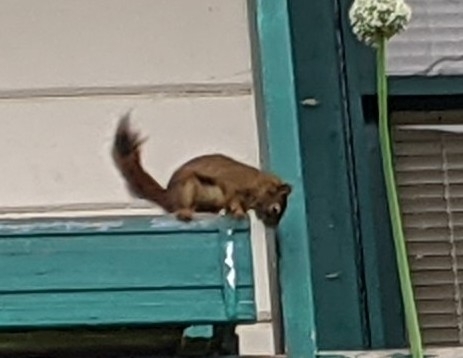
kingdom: Animalia
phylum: Chordata
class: Mammalia
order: Rodentia
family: Sciuridae
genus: Tamiasciurus
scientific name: Tamiasciurus hudsonicus
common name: Red squirrel
